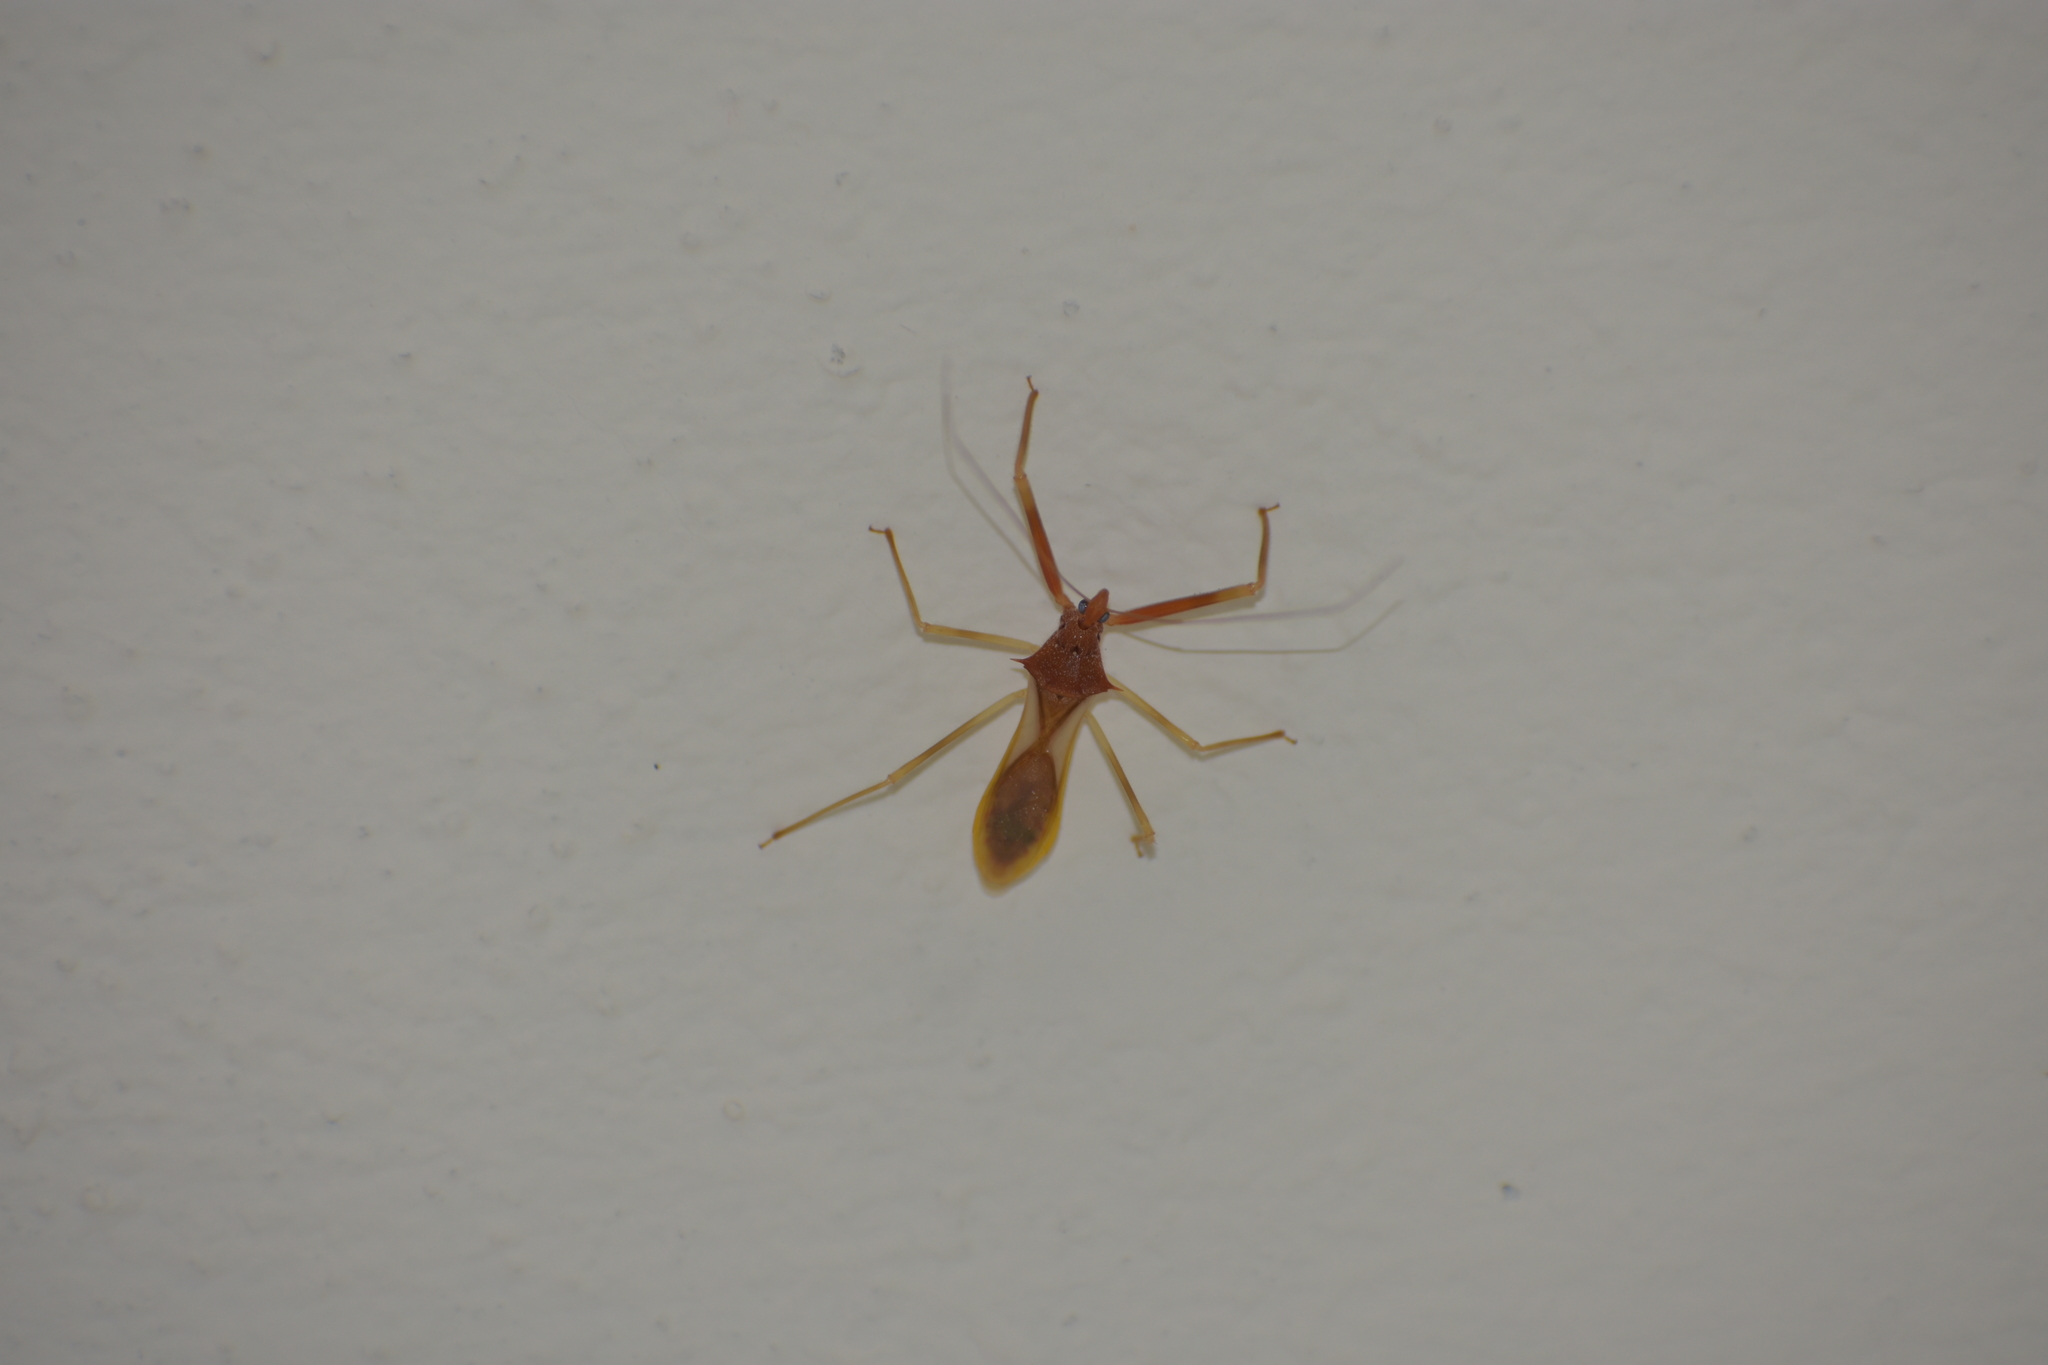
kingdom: Animalia
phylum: Arthropoda
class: Insecta
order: Hemiptera
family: Reduviidae
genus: Epidaus
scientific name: Epidaus bicolor
